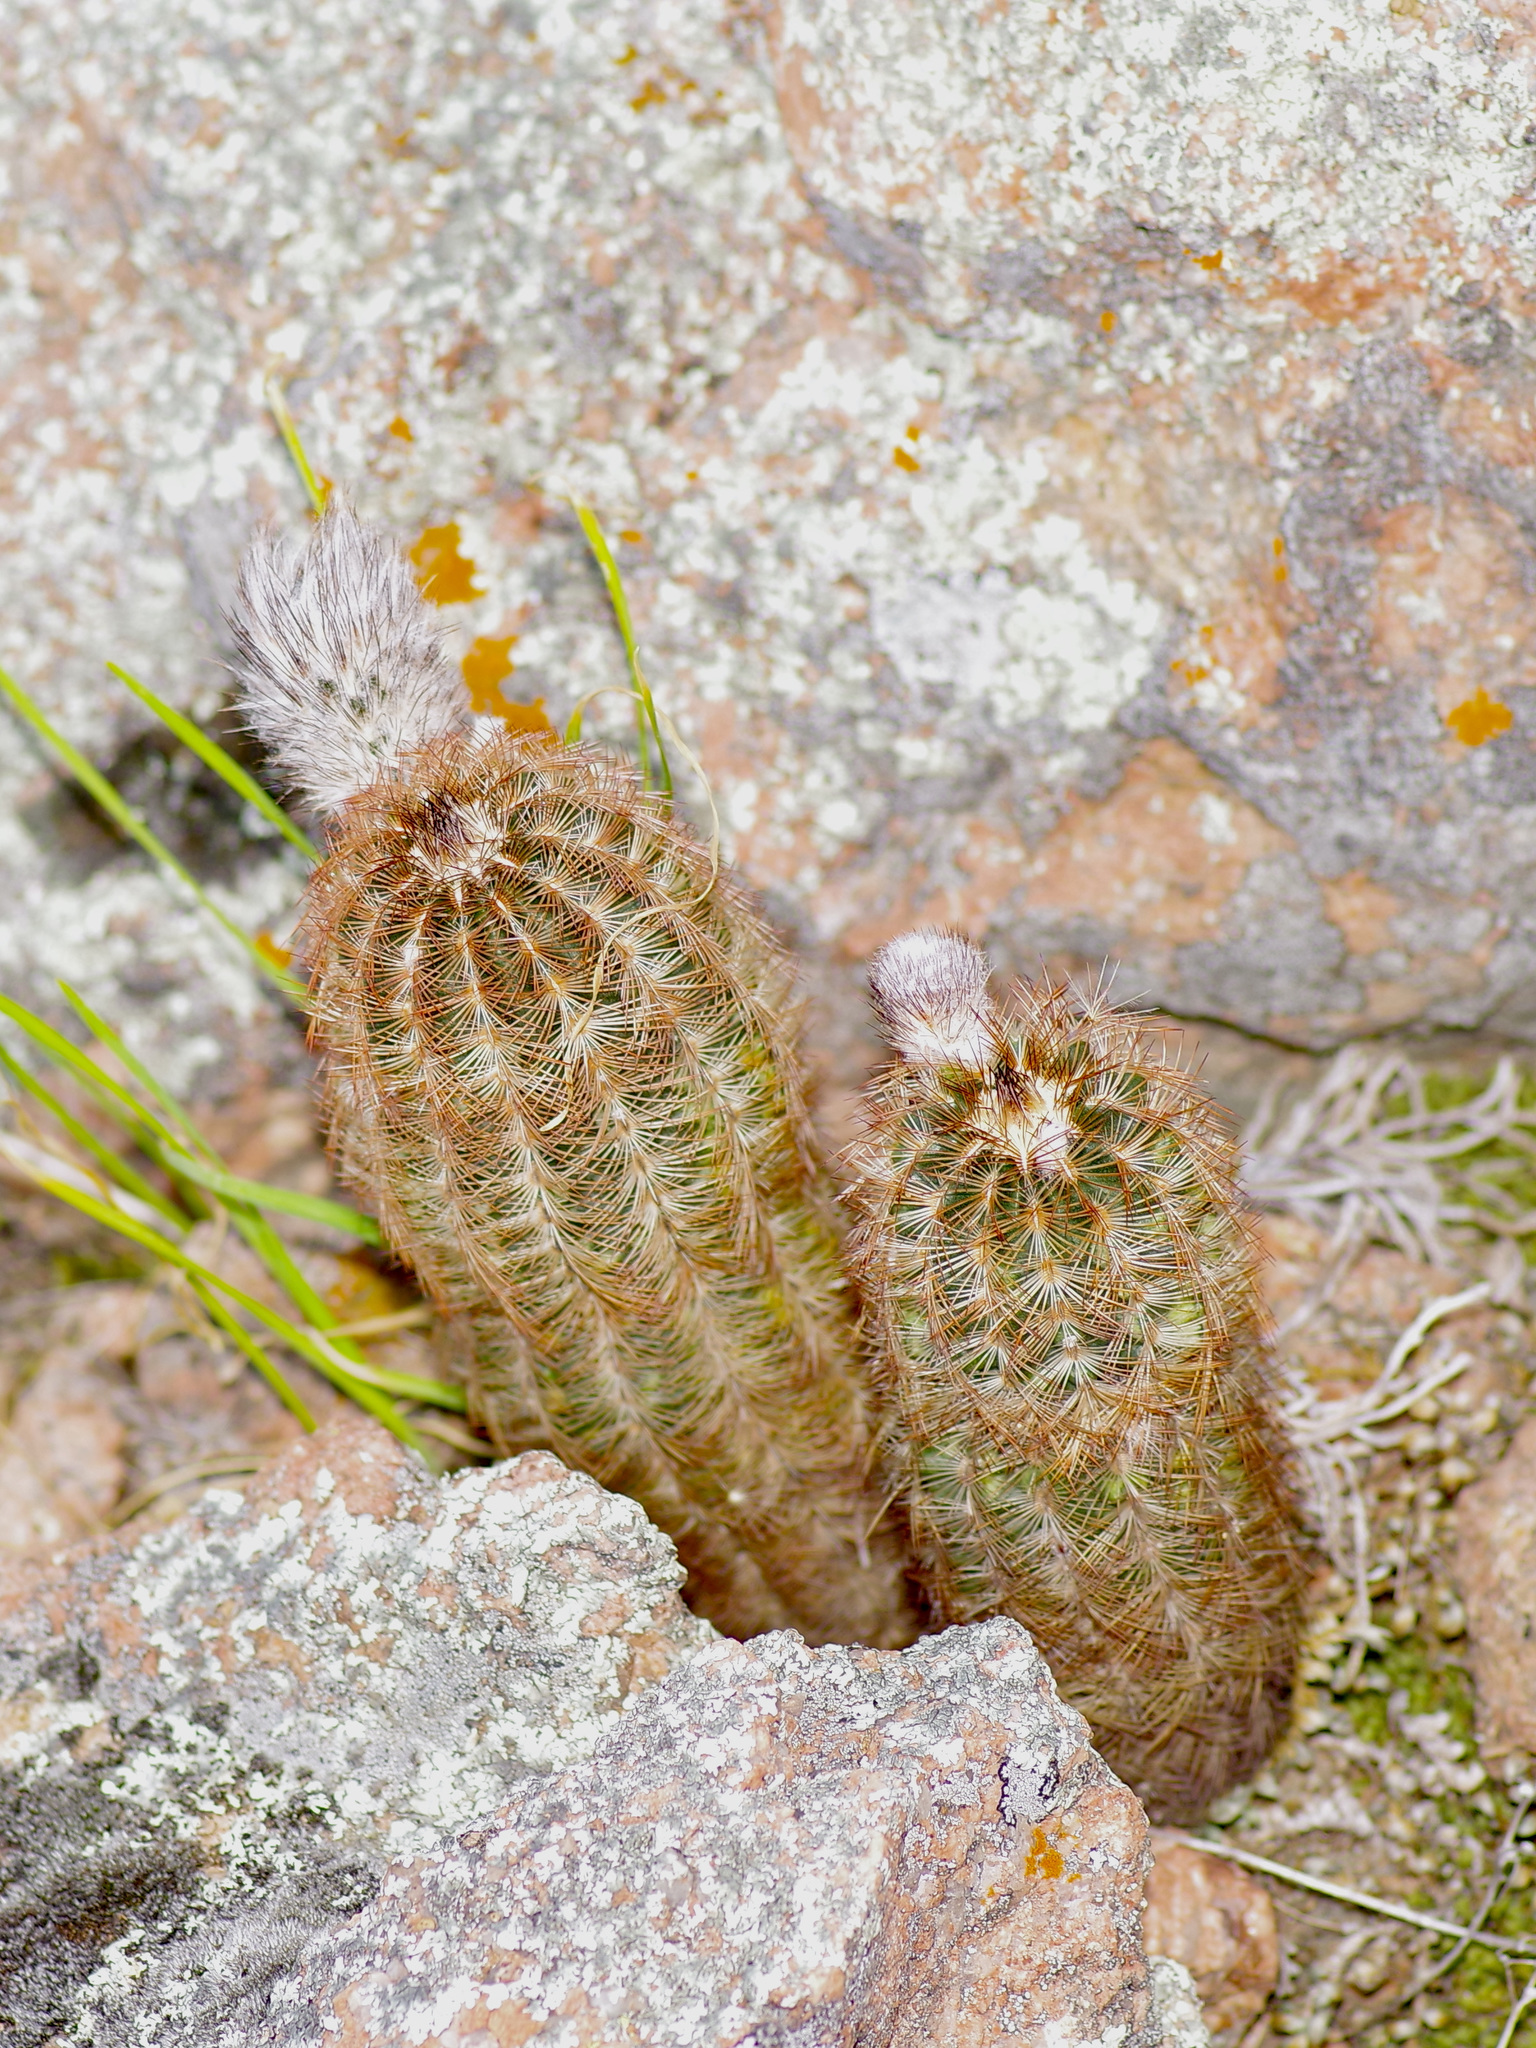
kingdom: Plantae
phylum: Tracheophyta
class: Magnoliopsida
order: Caryophyllales
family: Cactaceae
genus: Echinocereus
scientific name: Echinocereus reichenbachii
